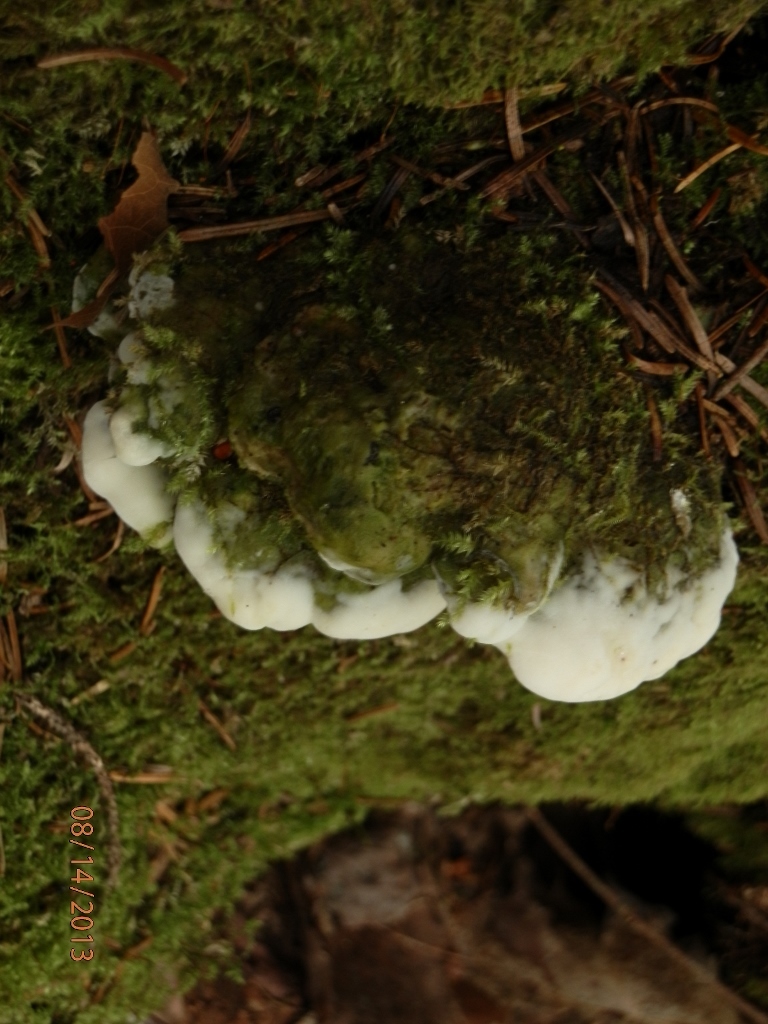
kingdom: Fungi
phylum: Basidiomycota
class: Agaricomycetes
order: Hymenochaetales
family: Oxyporaceae
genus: Oxyporus
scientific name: Oxyporus populinus
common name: Poplar bracket
